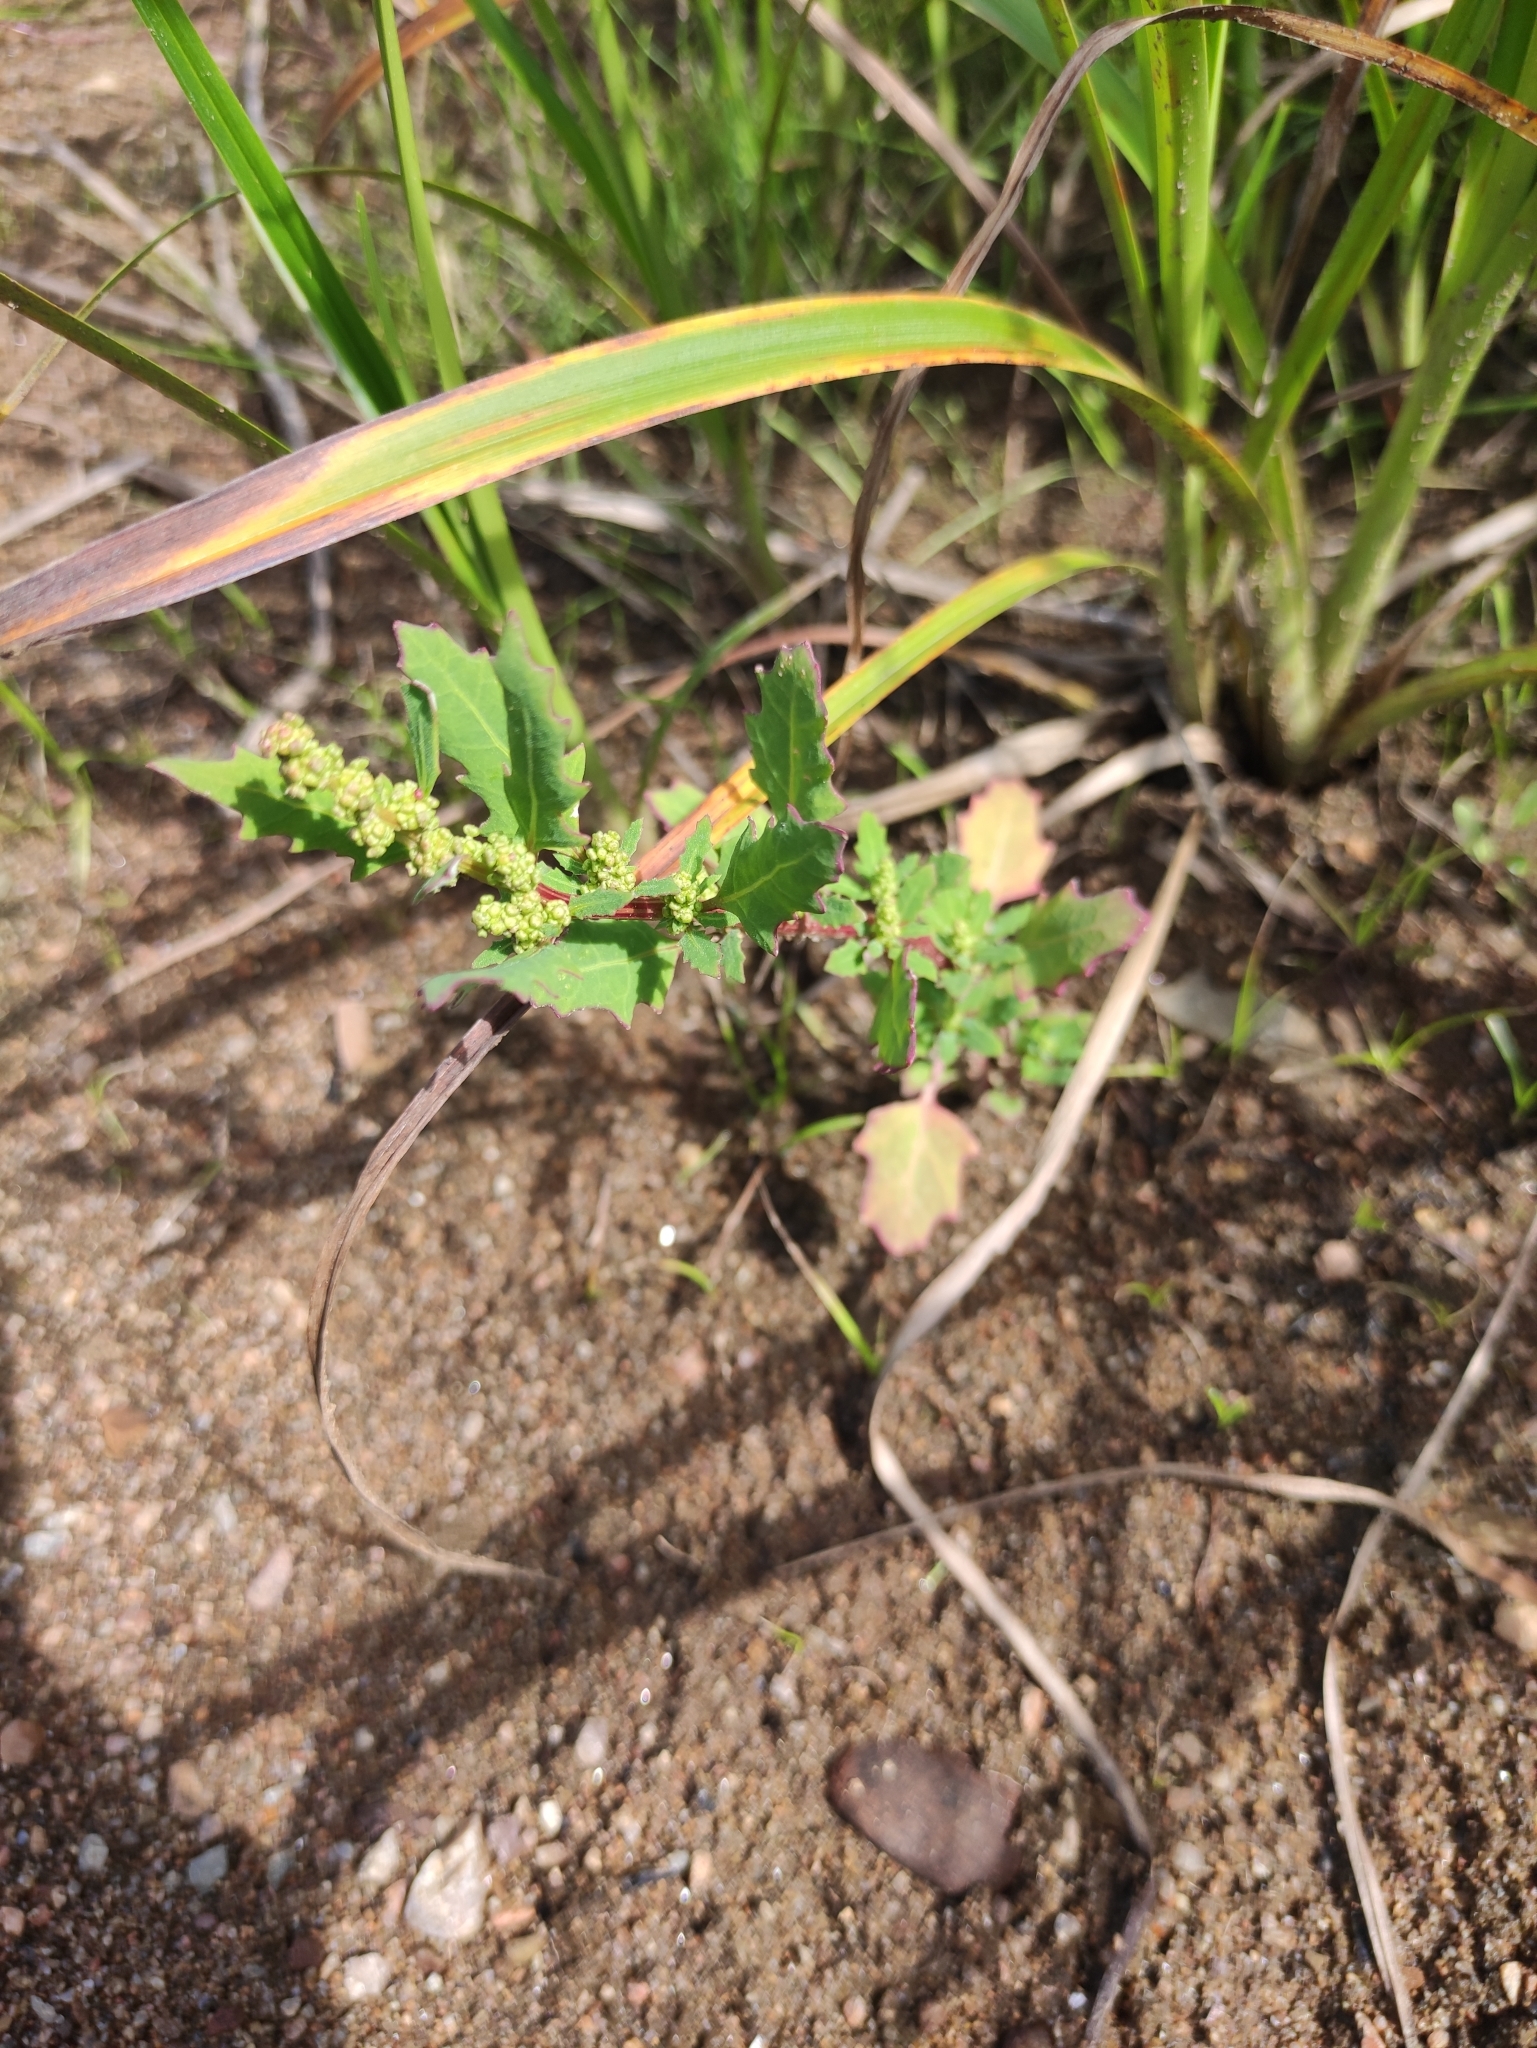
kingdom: Plantae
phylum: Tracheophyta
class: Magnoliopsida
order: Caryophyllales
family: Amaranthaceae
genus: Oxybasis
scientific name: Oxybasis glauca
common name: Glaucous goosefoot
